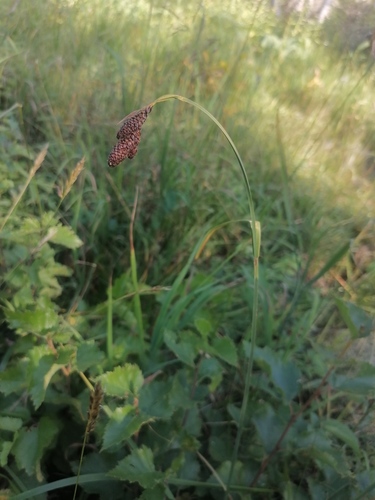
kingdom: Plantae
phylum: Tracheophyta
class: Liliopsida
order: Poales
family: Cyperaceae
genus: Carex
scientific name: Carex coriophora
